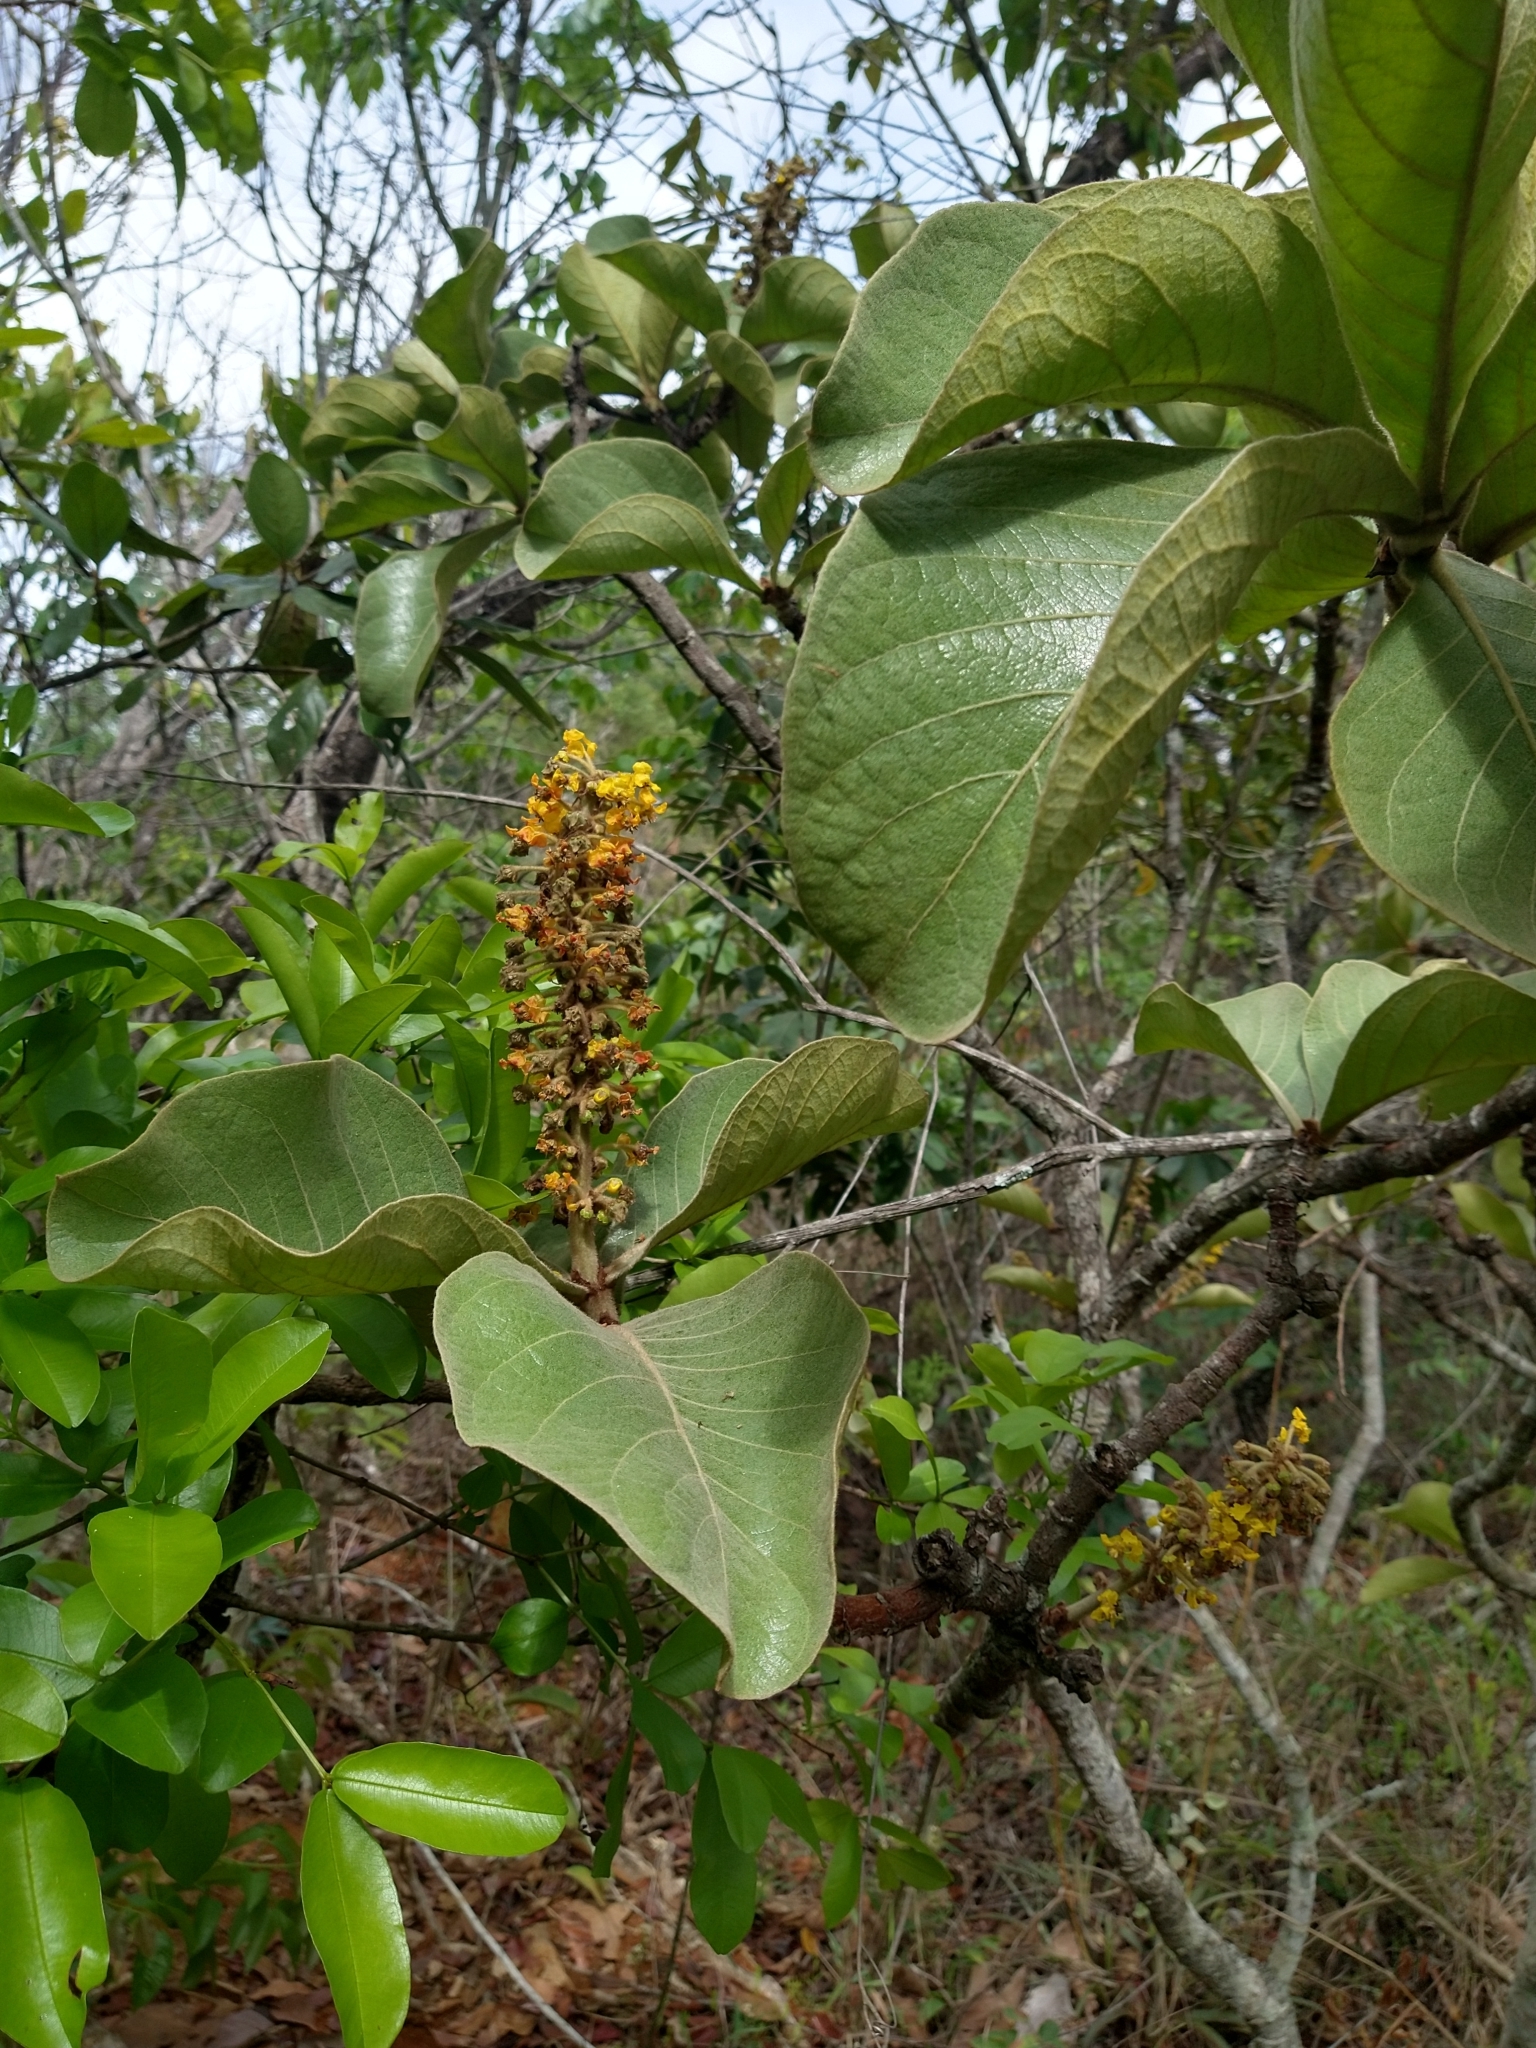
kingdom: Plantae
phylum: Tracheophyta
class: Magnoliopsida
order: Malpighiales
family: Malpighiaceae
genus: Byrsonima
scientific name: Byrsonima verbascifolia
